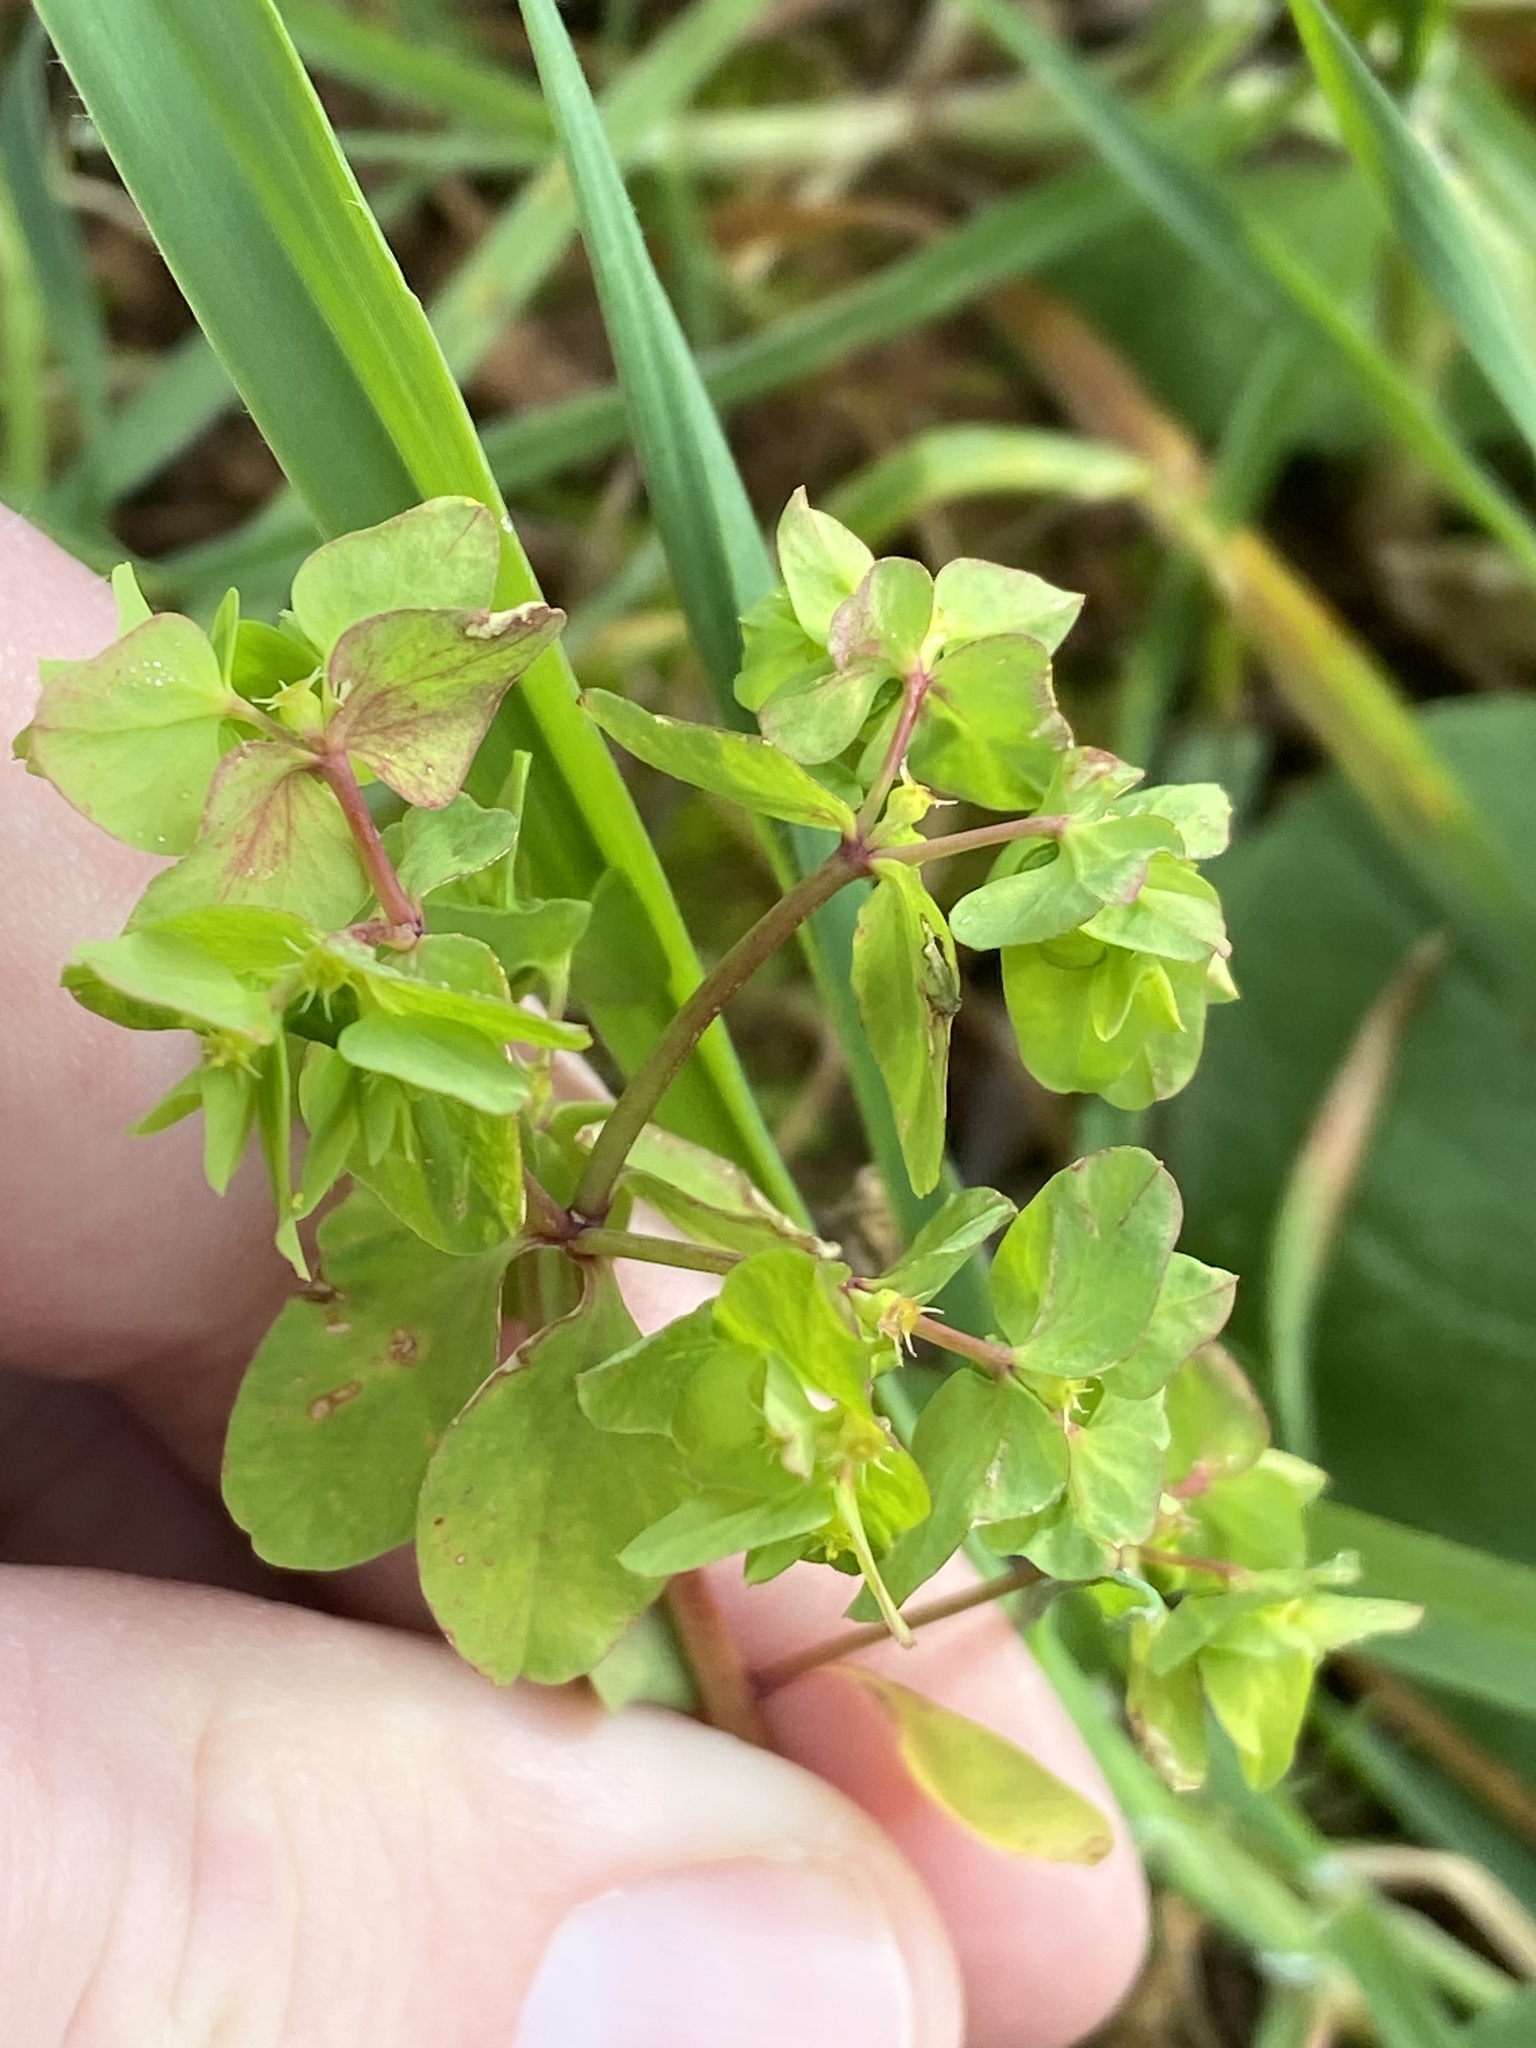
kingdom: Plantae
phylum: Tracheophyta
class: Magnoliopsida
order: Malpighiales
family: Euphorbiaceae
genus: Euphorbia
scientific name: Euphorbia peplus
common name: Petty spurge
